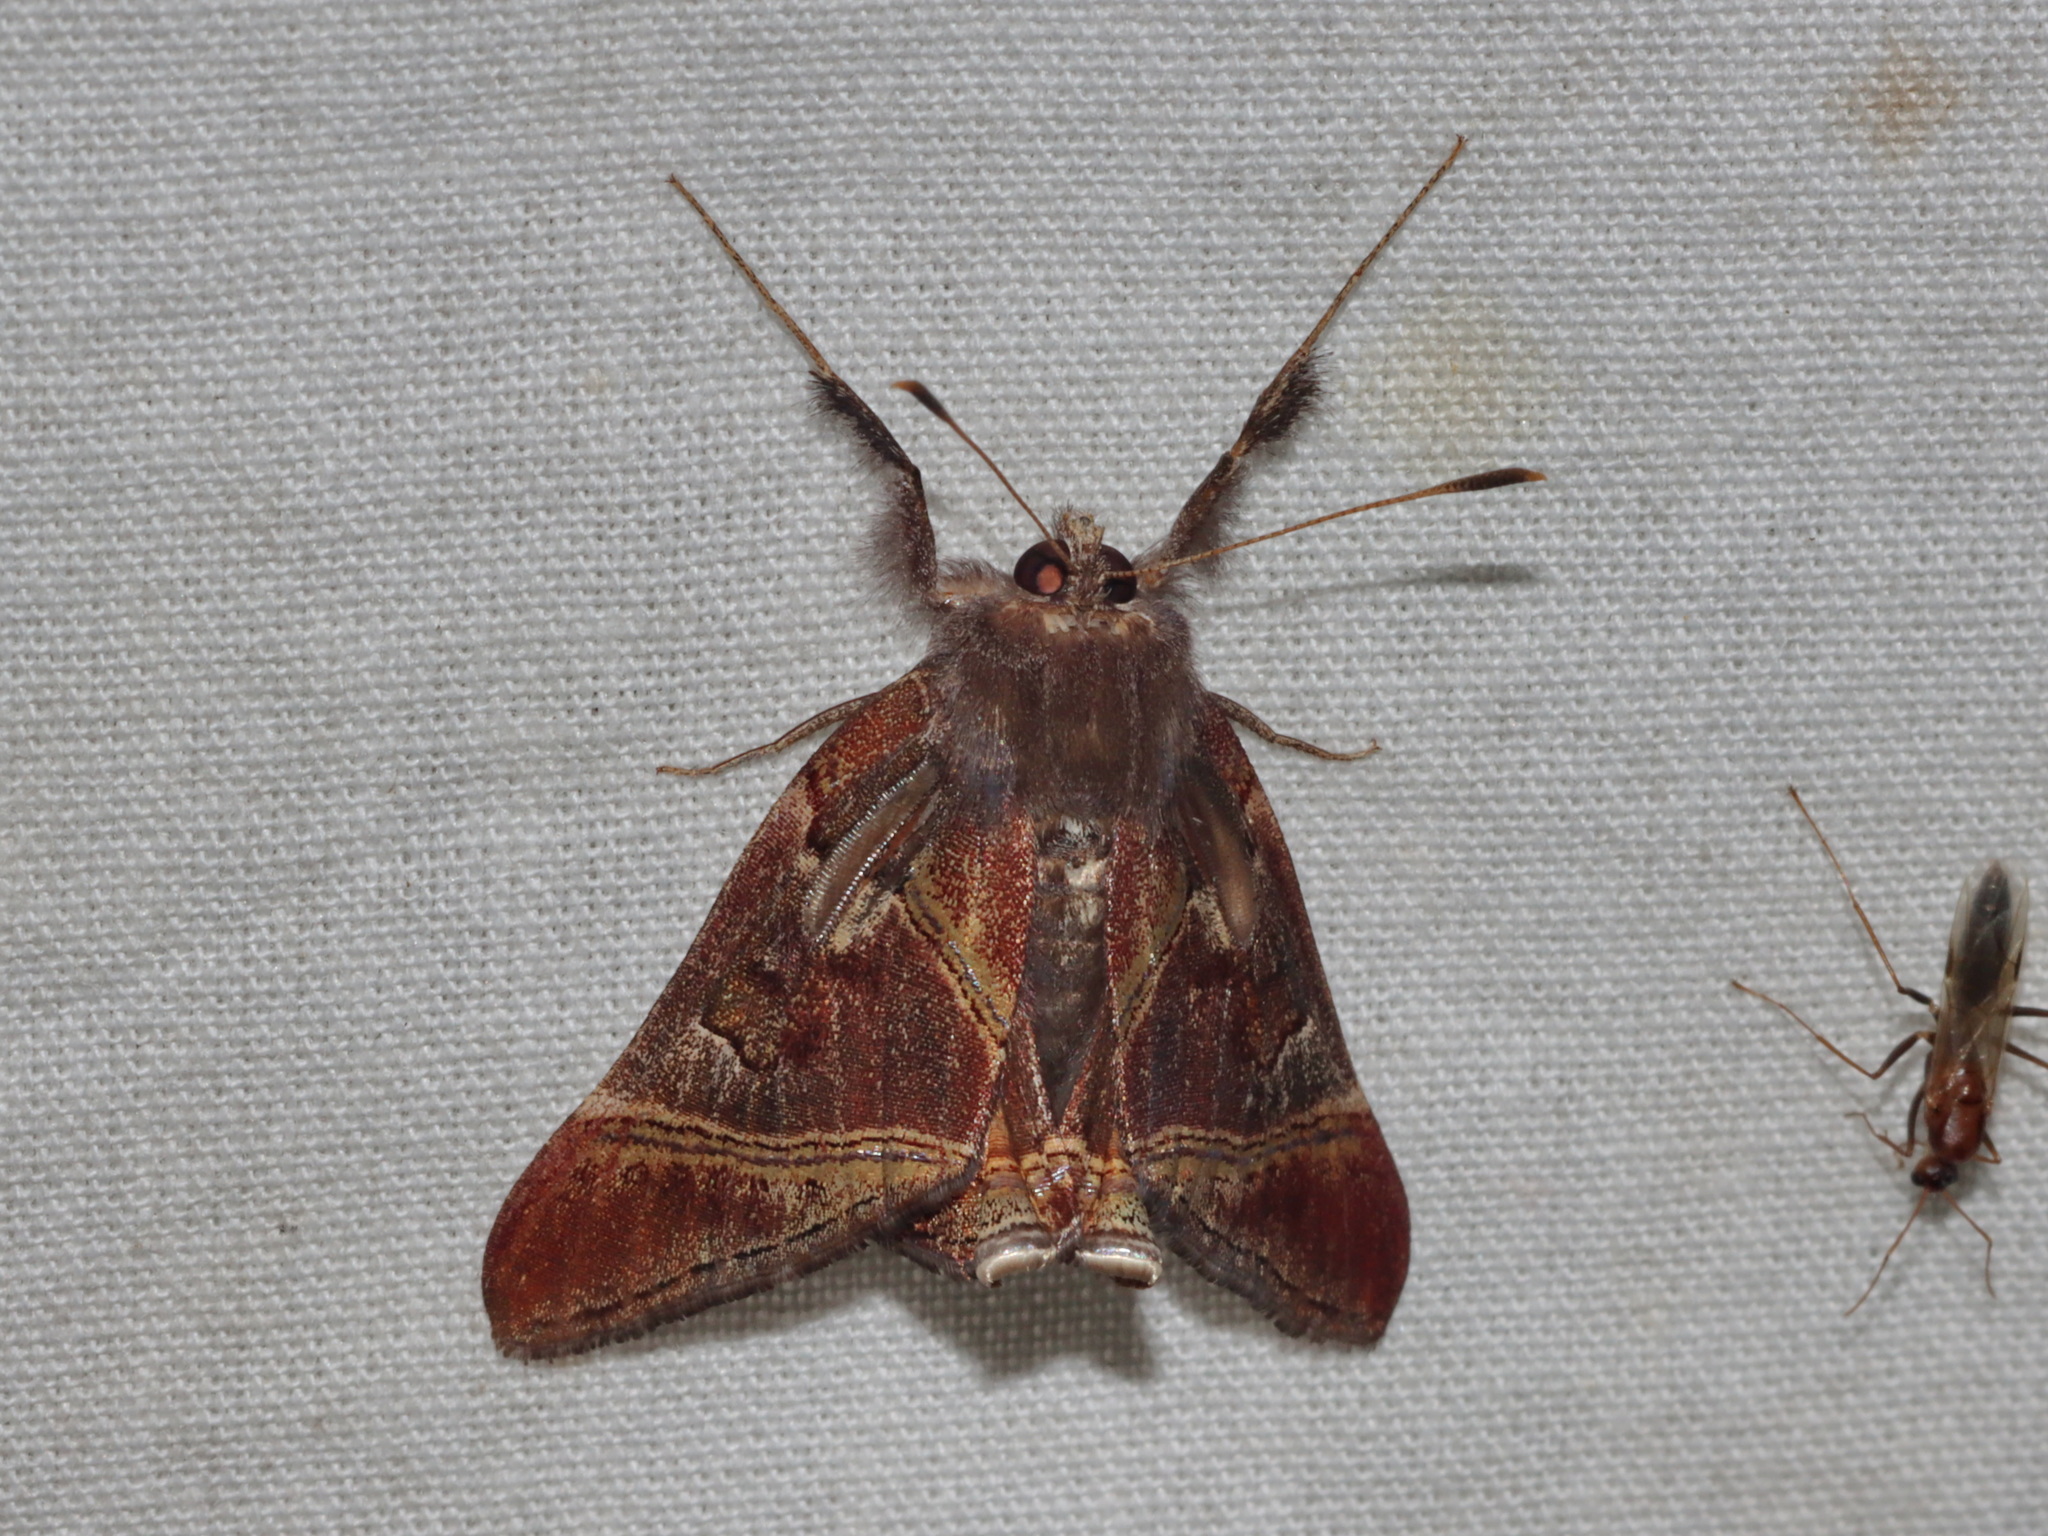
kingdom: Animalia
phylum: Arthropoda
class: Insecta
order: Lepidoptera
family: Noctuidae
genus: Saigonita
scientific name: Saigonita paradoxa
